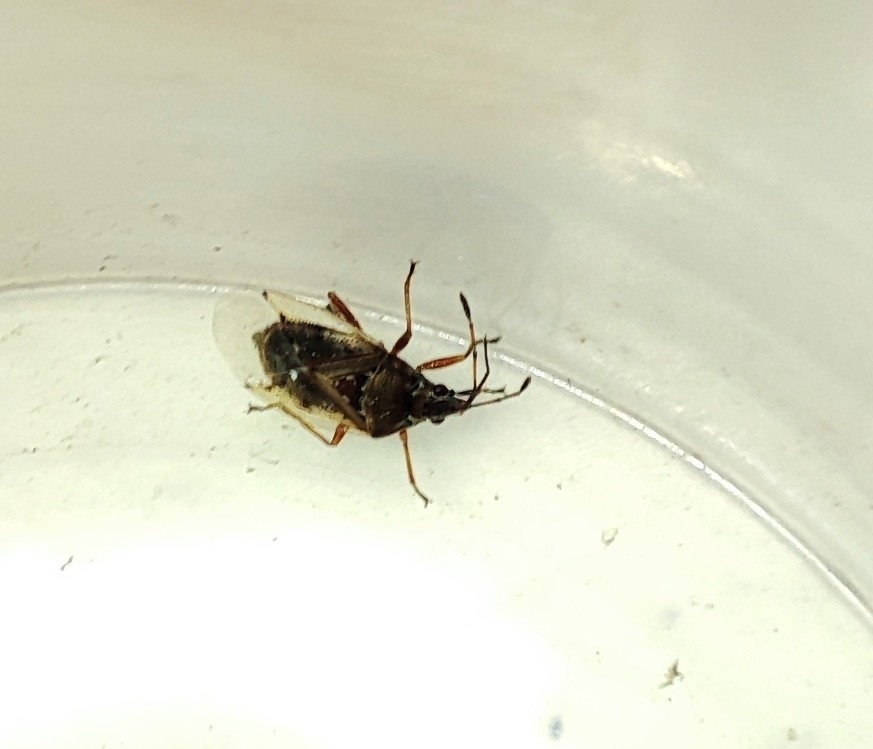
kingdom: Animalia
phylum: Arthropoda
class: Insecta
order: Hemiptera
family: Lygaeidae
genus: Kleidocerys
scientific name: Kleidocerys resedae
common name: Birch catkin bug
